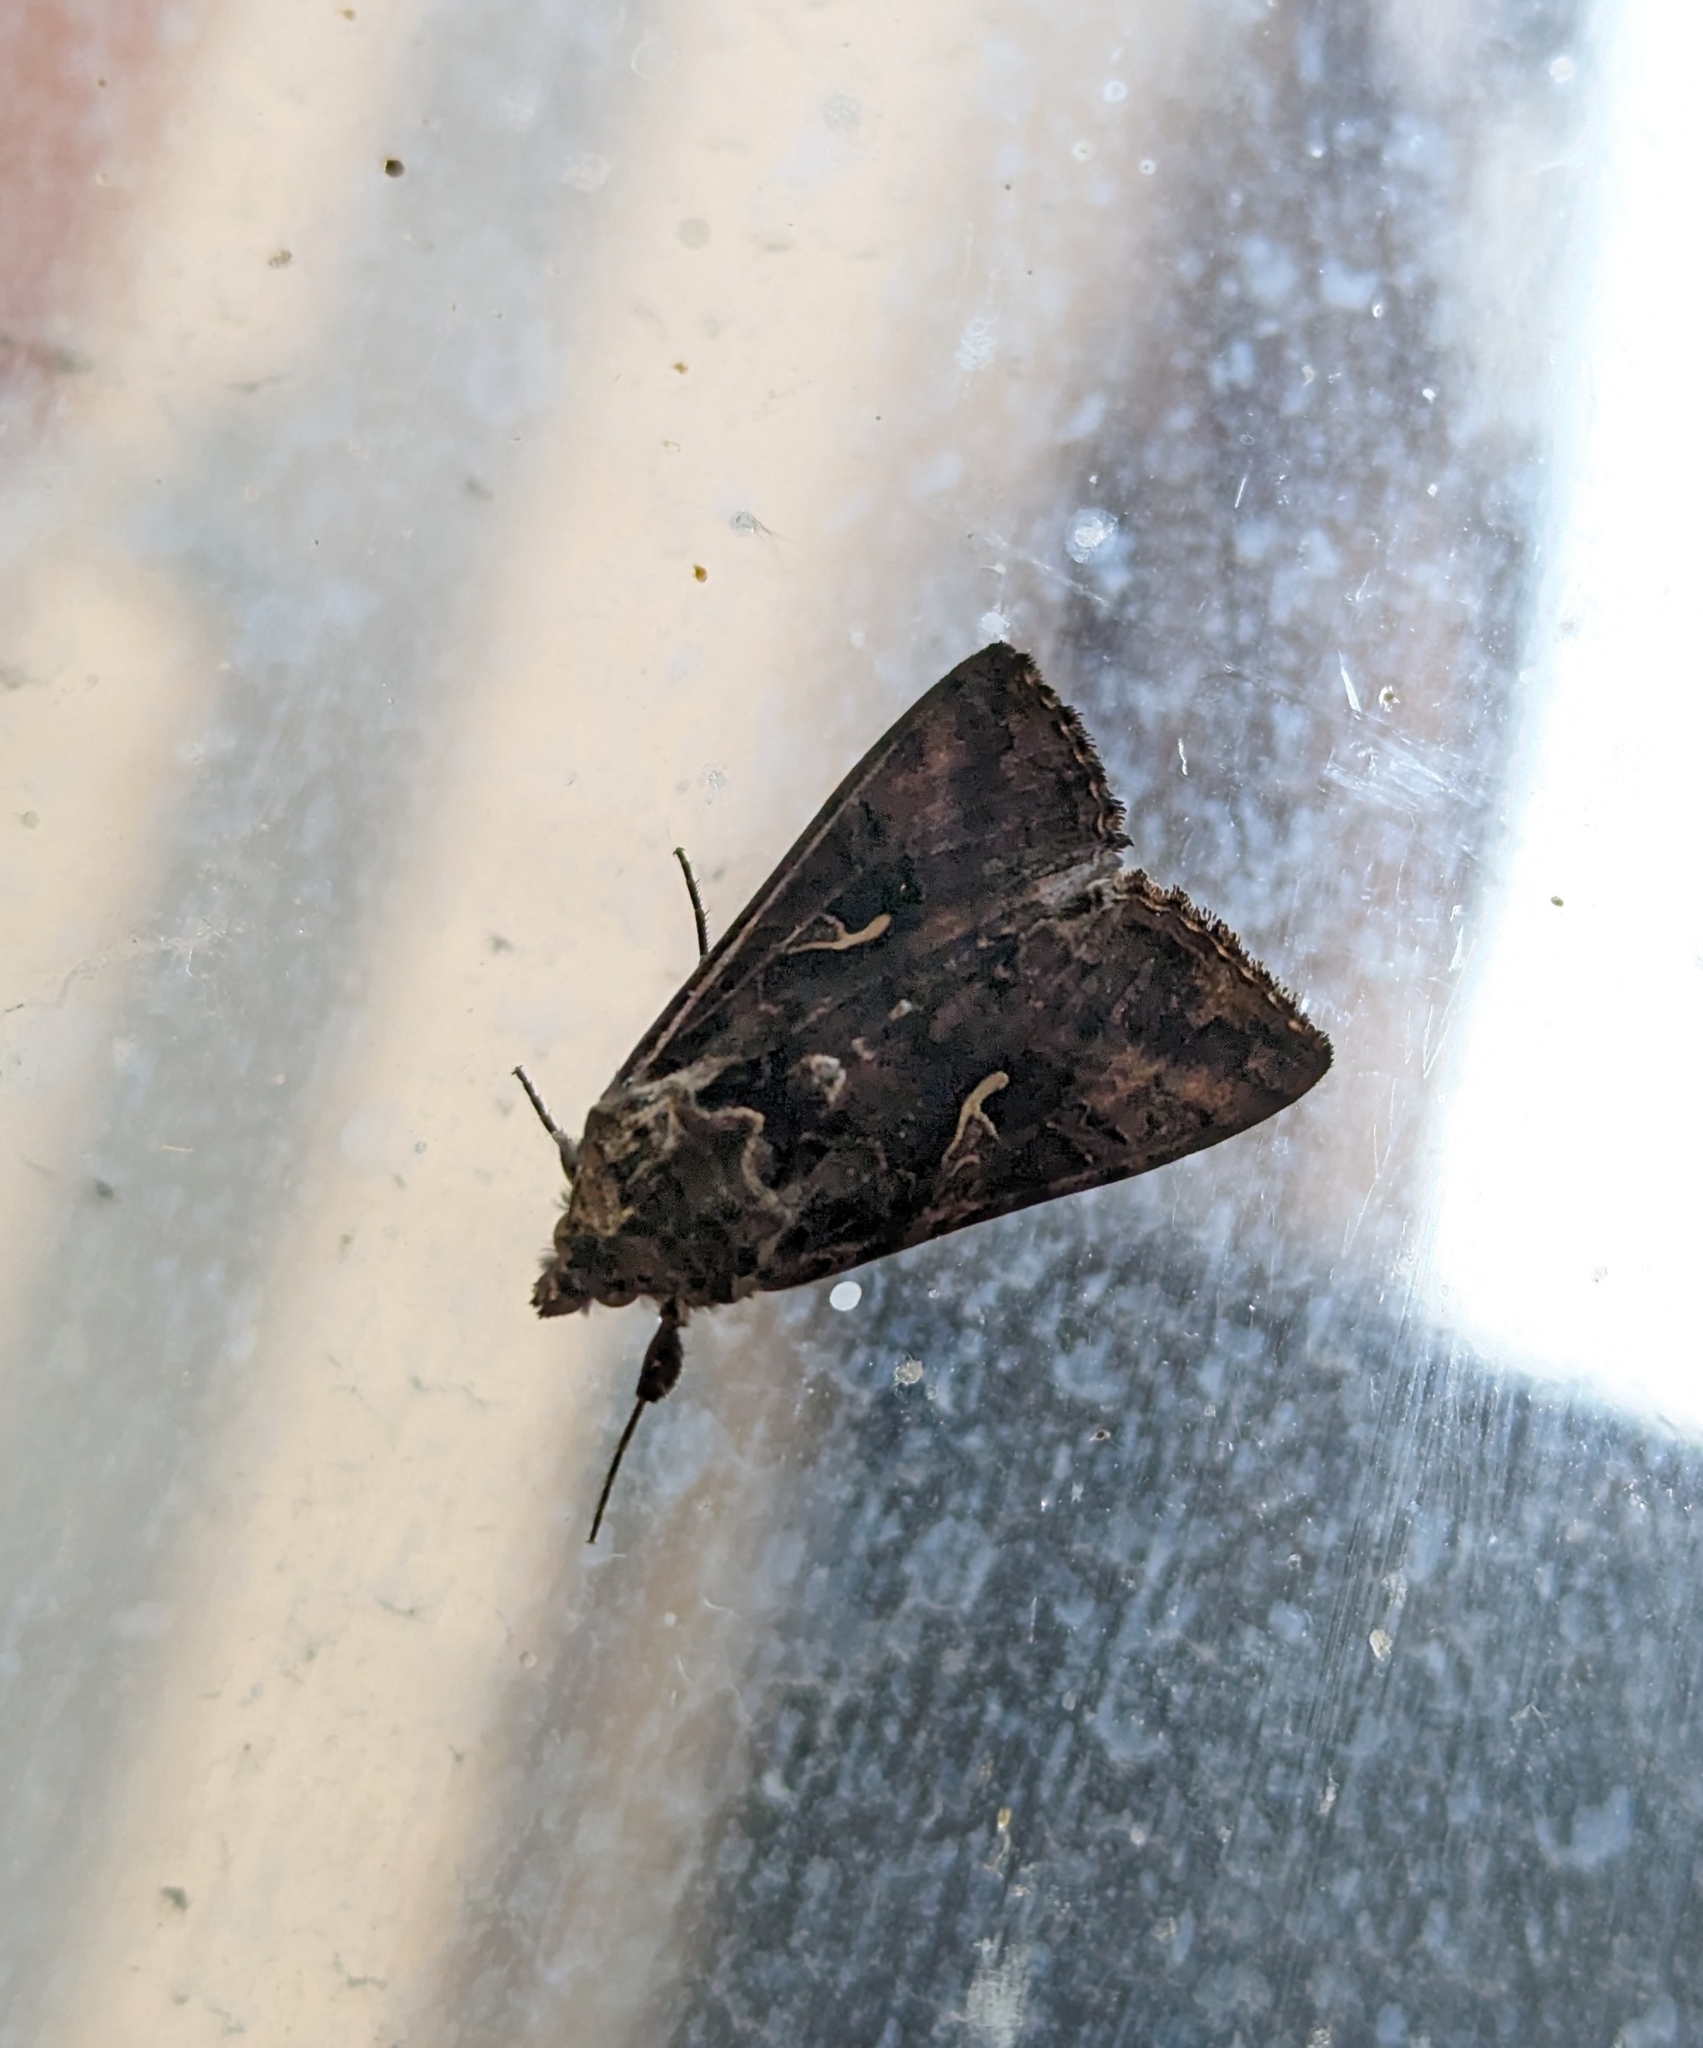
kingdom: Animalia
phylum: Arthropoda
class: Insecta
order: Lepidoptera
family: Noctuidae
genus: Autographa
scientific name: Autographa gamma
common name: Silver y
